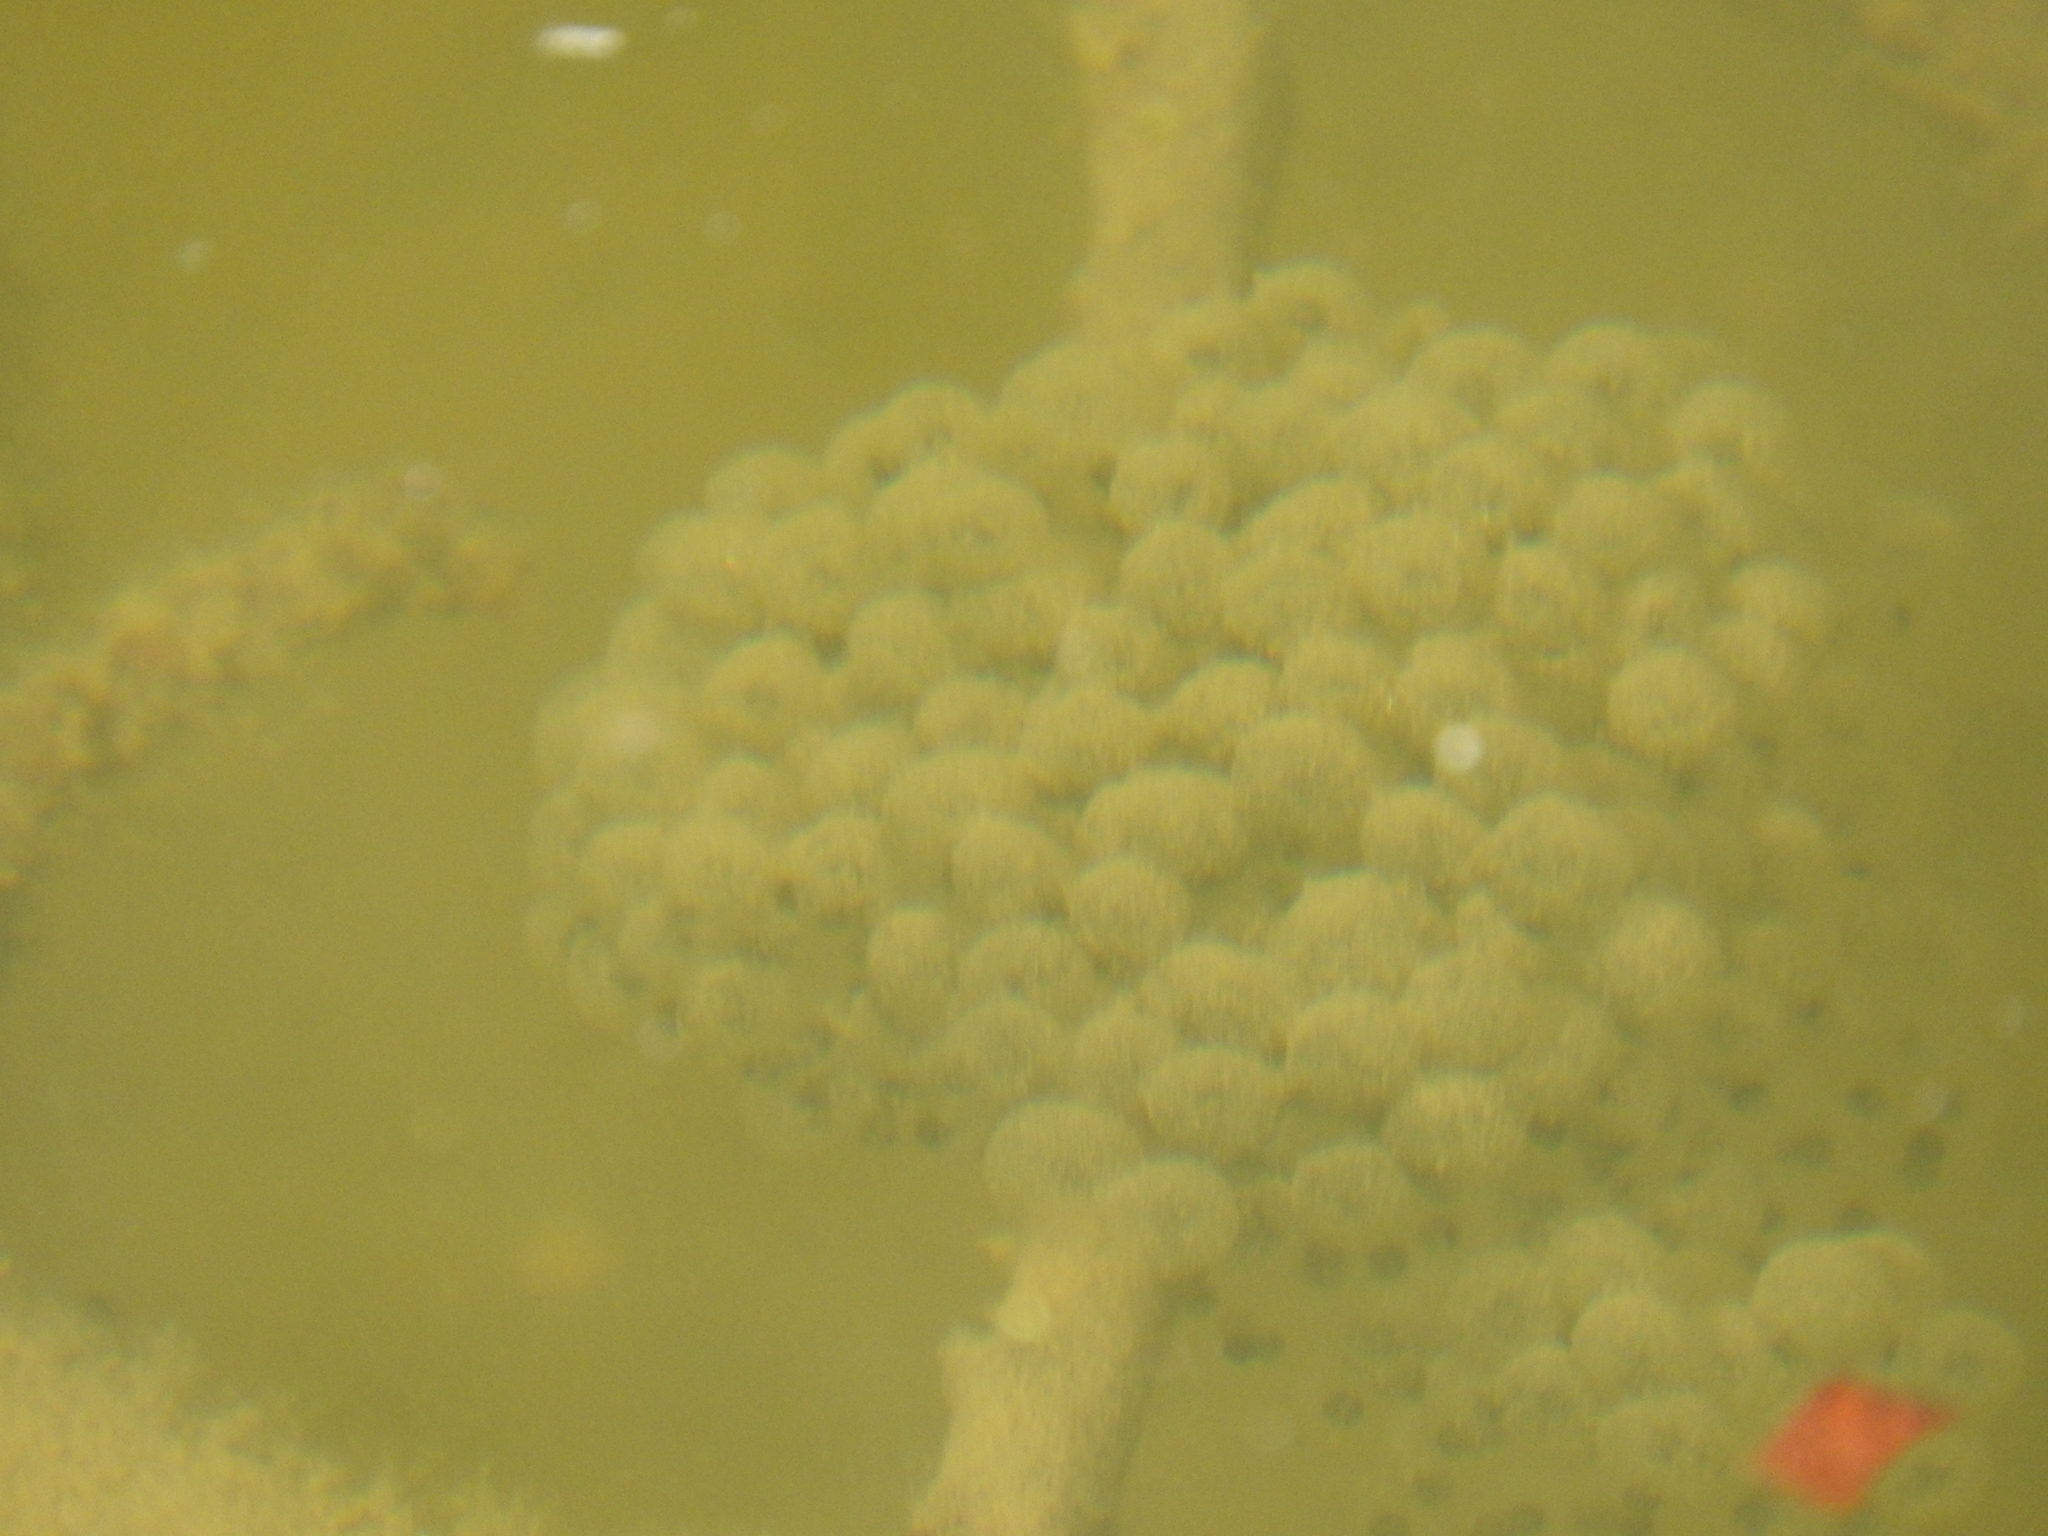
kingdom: Animalia
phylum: Chordata
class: Amphibia
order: Anura
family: Ranidae
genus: Rana
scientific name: Rana latastei
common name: Italian agile frog
